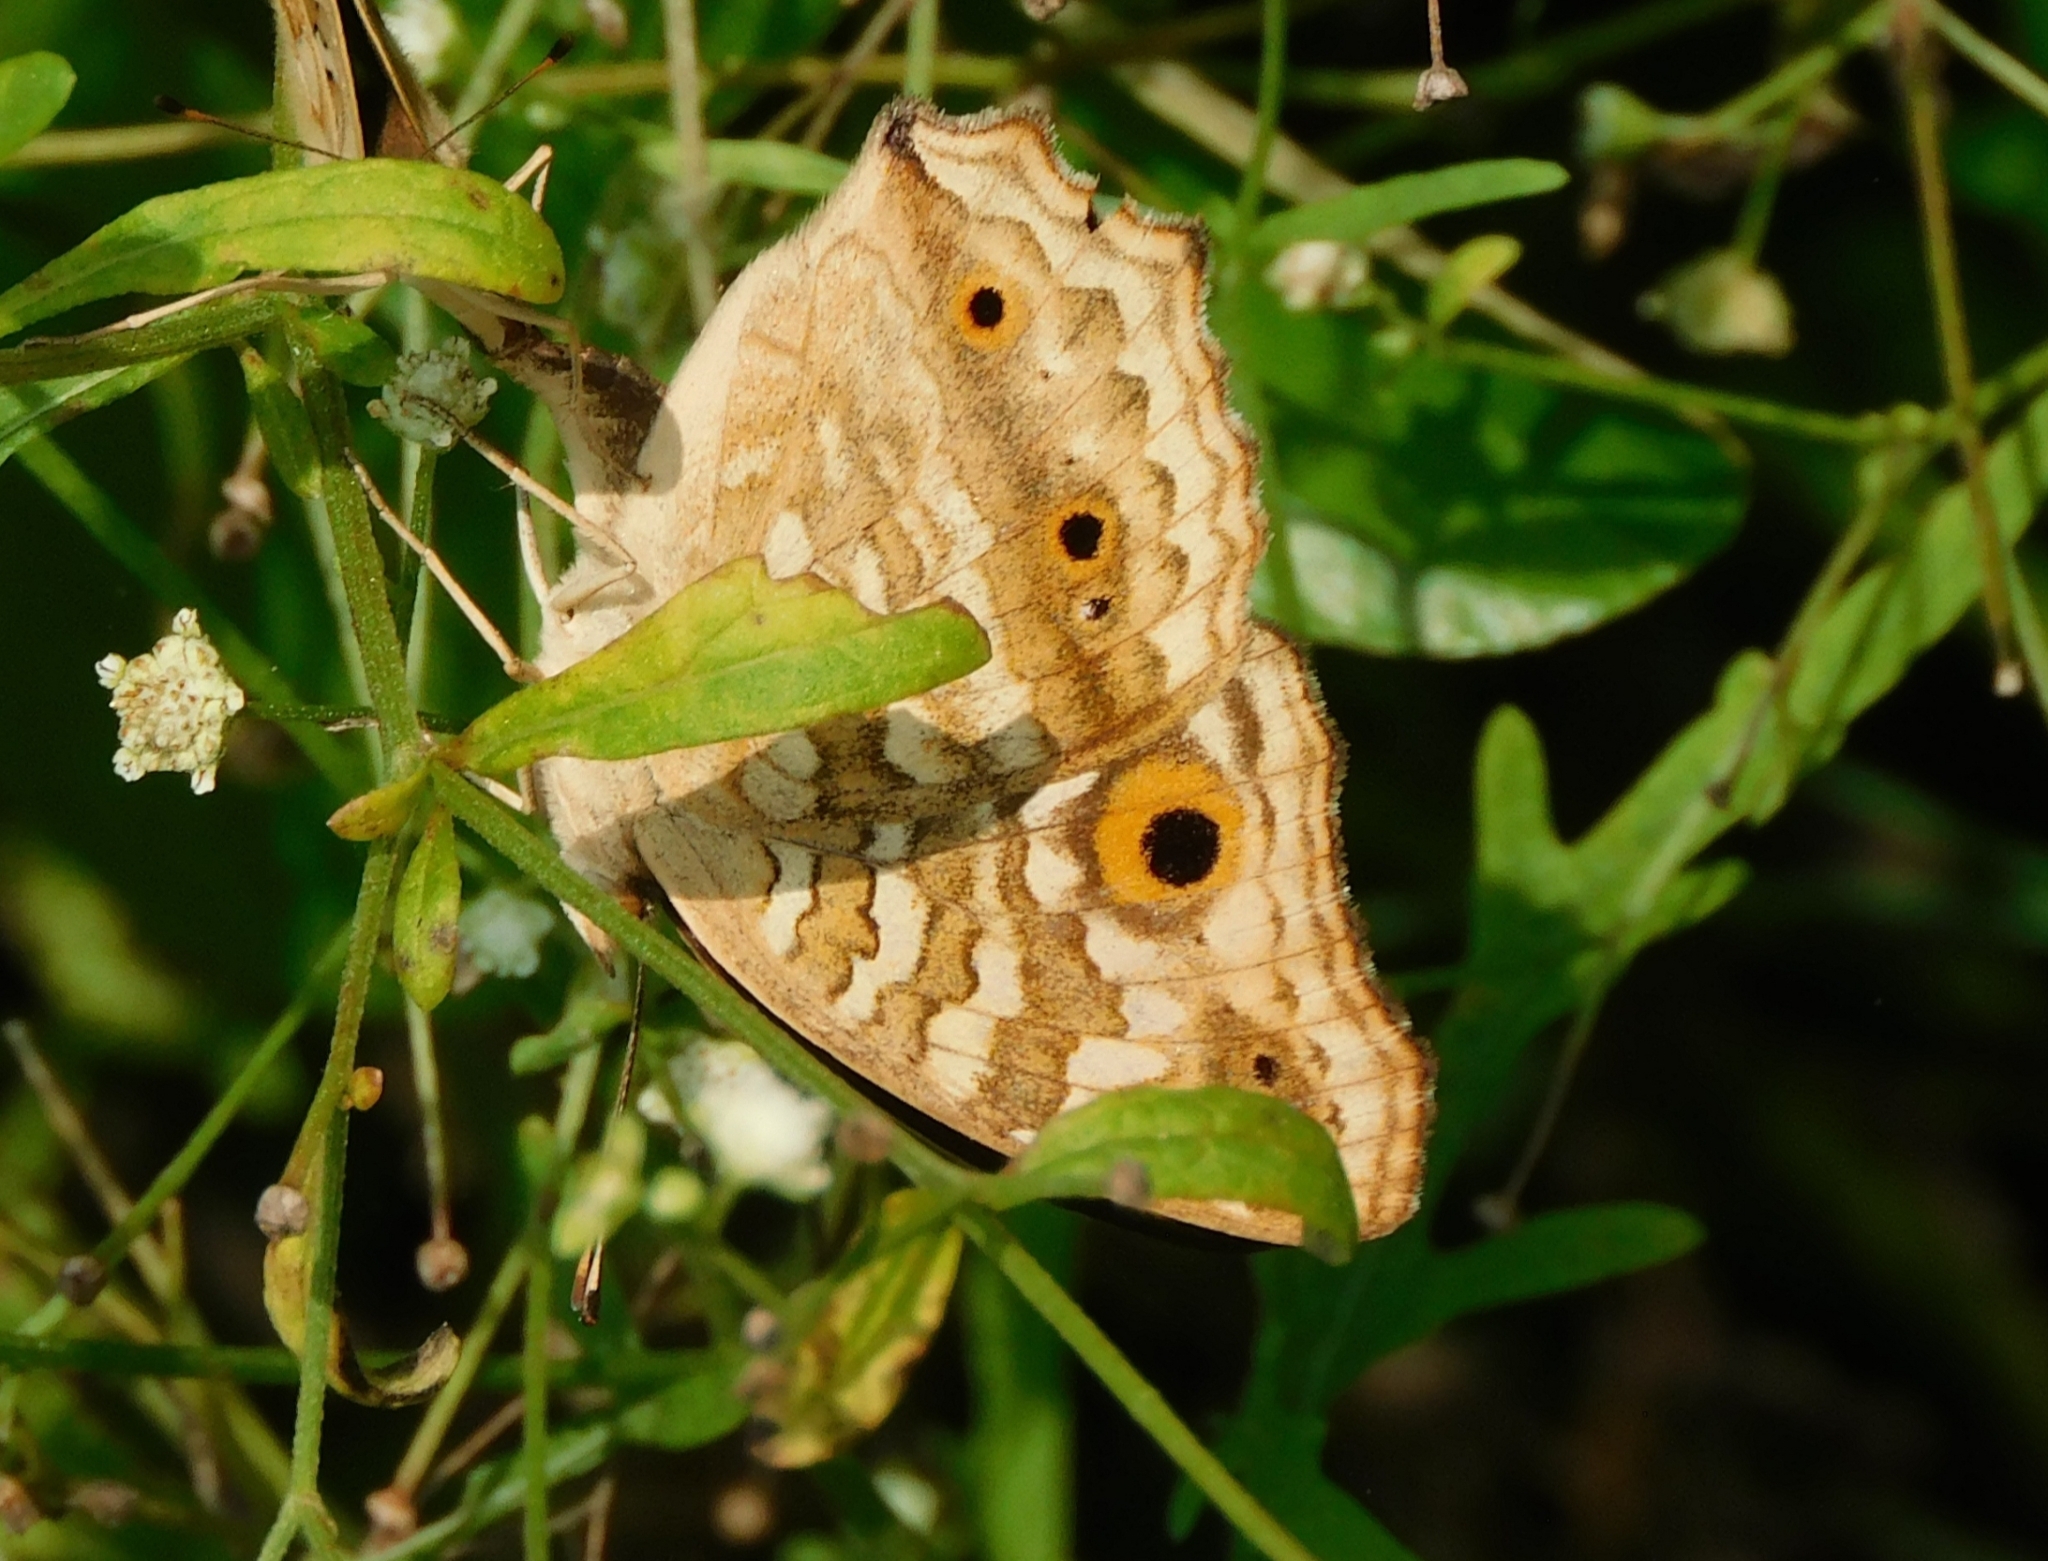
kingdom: Animalia
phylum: Arthropoda
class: Insecta
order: Lepidoptera
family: Nymphalidae
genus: Junonia
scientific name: Junonia lemonias
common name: Lemon pansy
